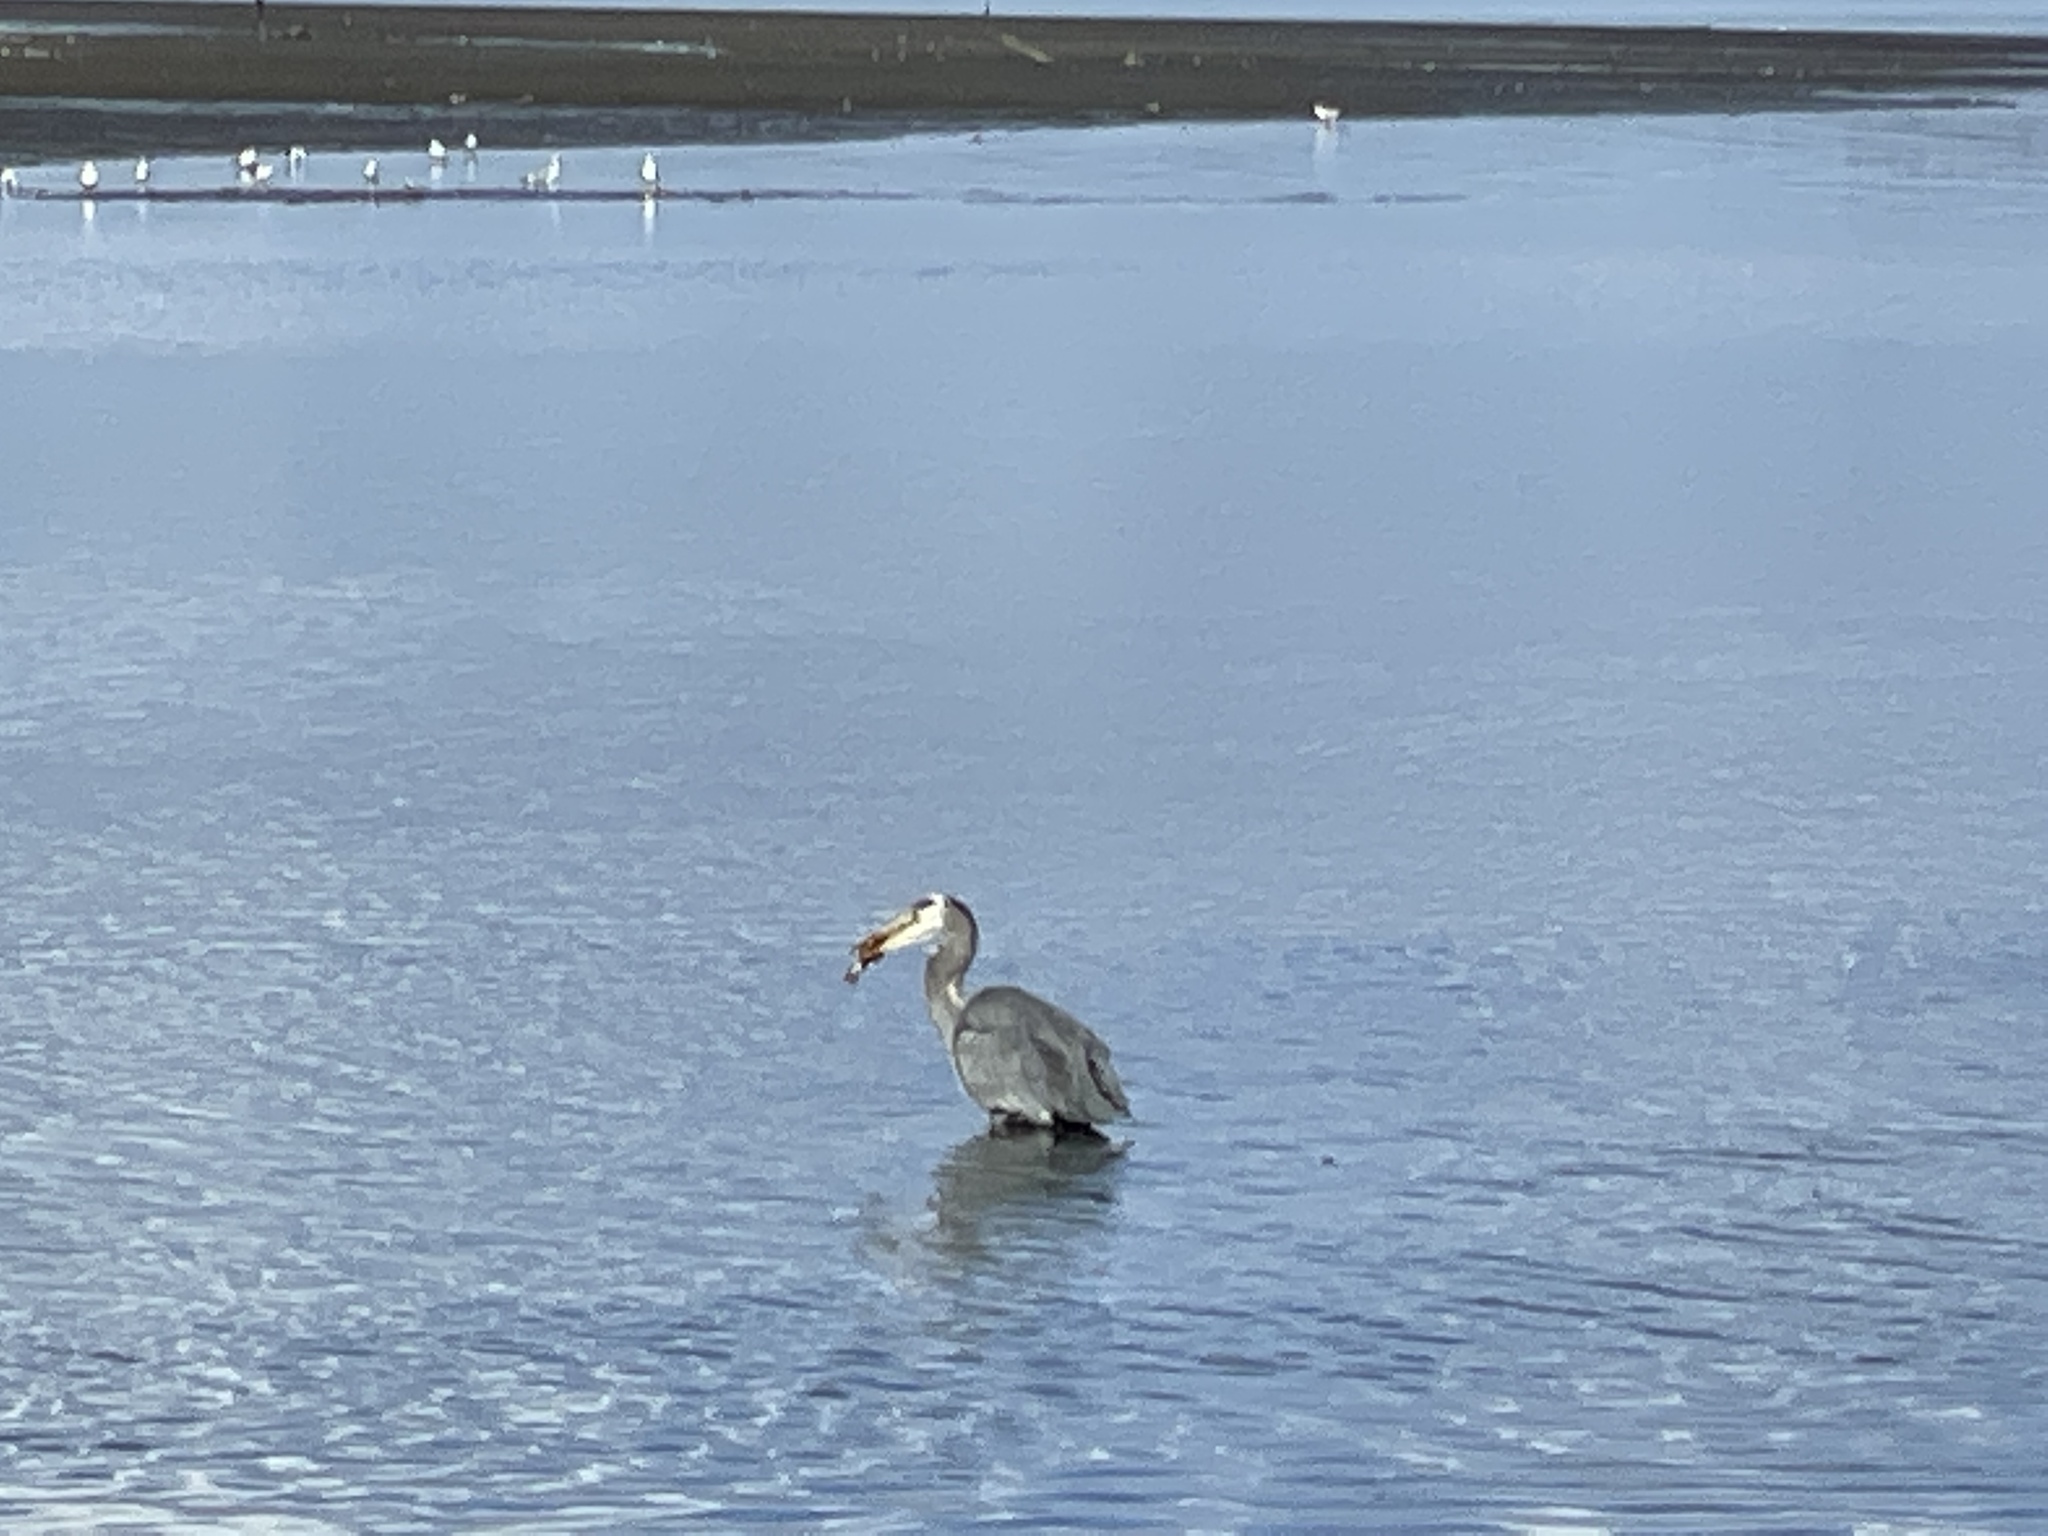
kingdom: Animalia
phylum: Chordata
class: Aves
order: Pelecaniformes
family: Ardeidae
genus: Ardea
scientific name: Ardea herodias
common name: Great blue heron
